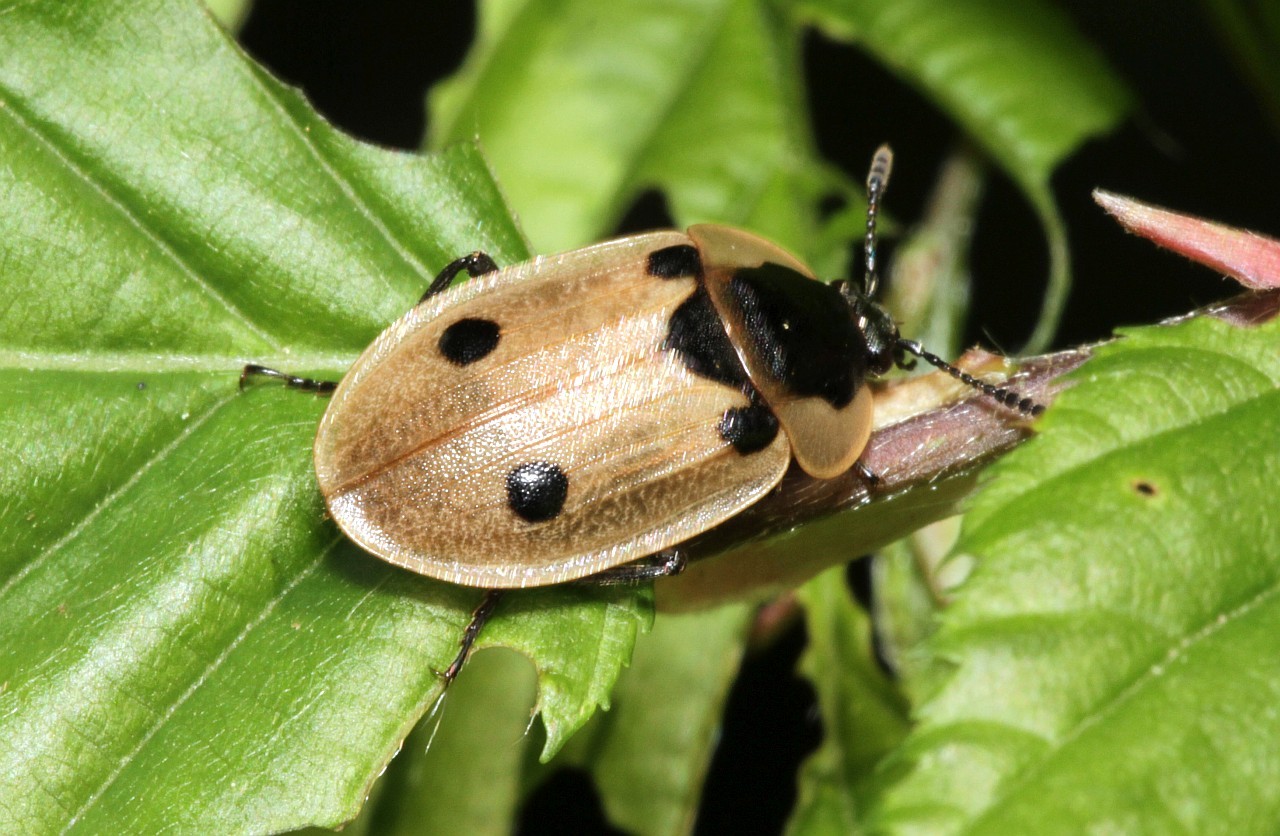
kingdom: Animalia
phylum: Arthropoda
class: Insecta
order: Coleoptera
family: Staphylinidae
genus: Dendroxena
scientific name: Dendroxena quadrimaculata
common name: Carrion beetle
